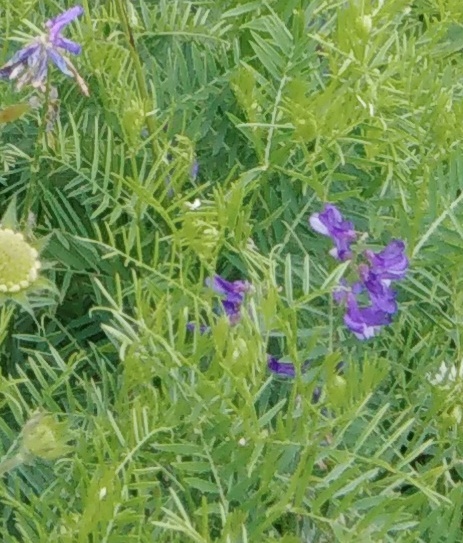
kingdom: Plantae
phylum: Tracheophyta
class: Magnoliopsida
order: Fabales
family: Fabaceae
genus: Vicia
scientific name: Vicia tenuifolia
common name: Fine-leaved vetch
